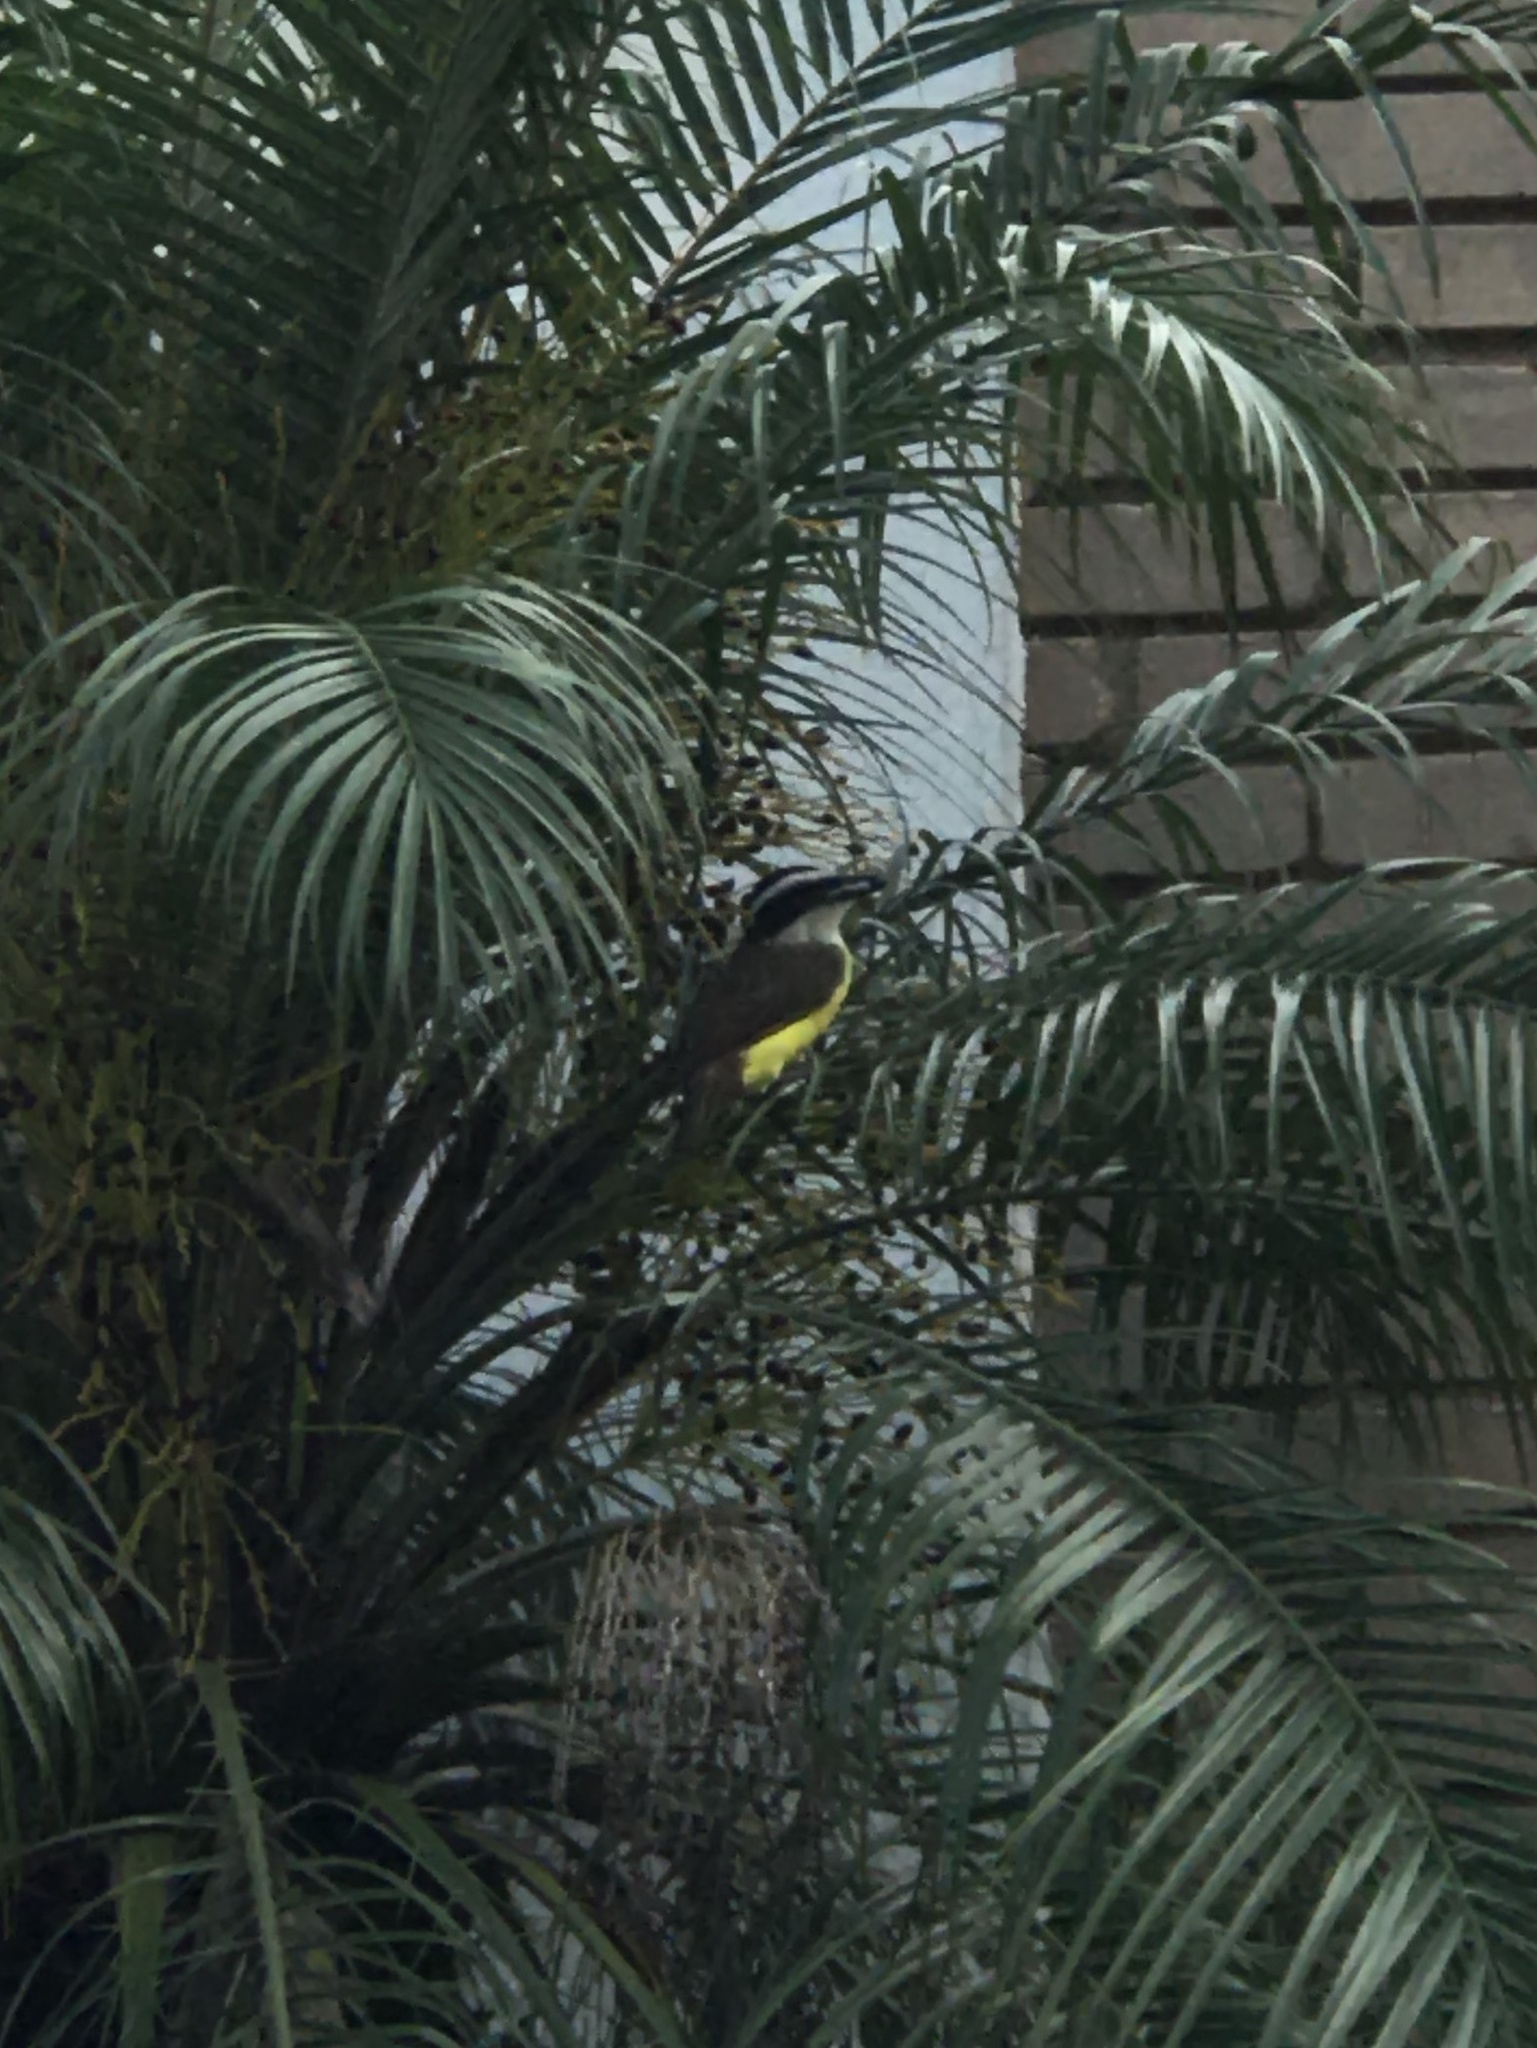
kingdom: Animalia
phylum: Chordata
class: Aves
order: Passeriformes
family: Tyrannidae
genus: Pitangus
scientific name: Pitangus sulphuratus
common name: Great kiskadee
